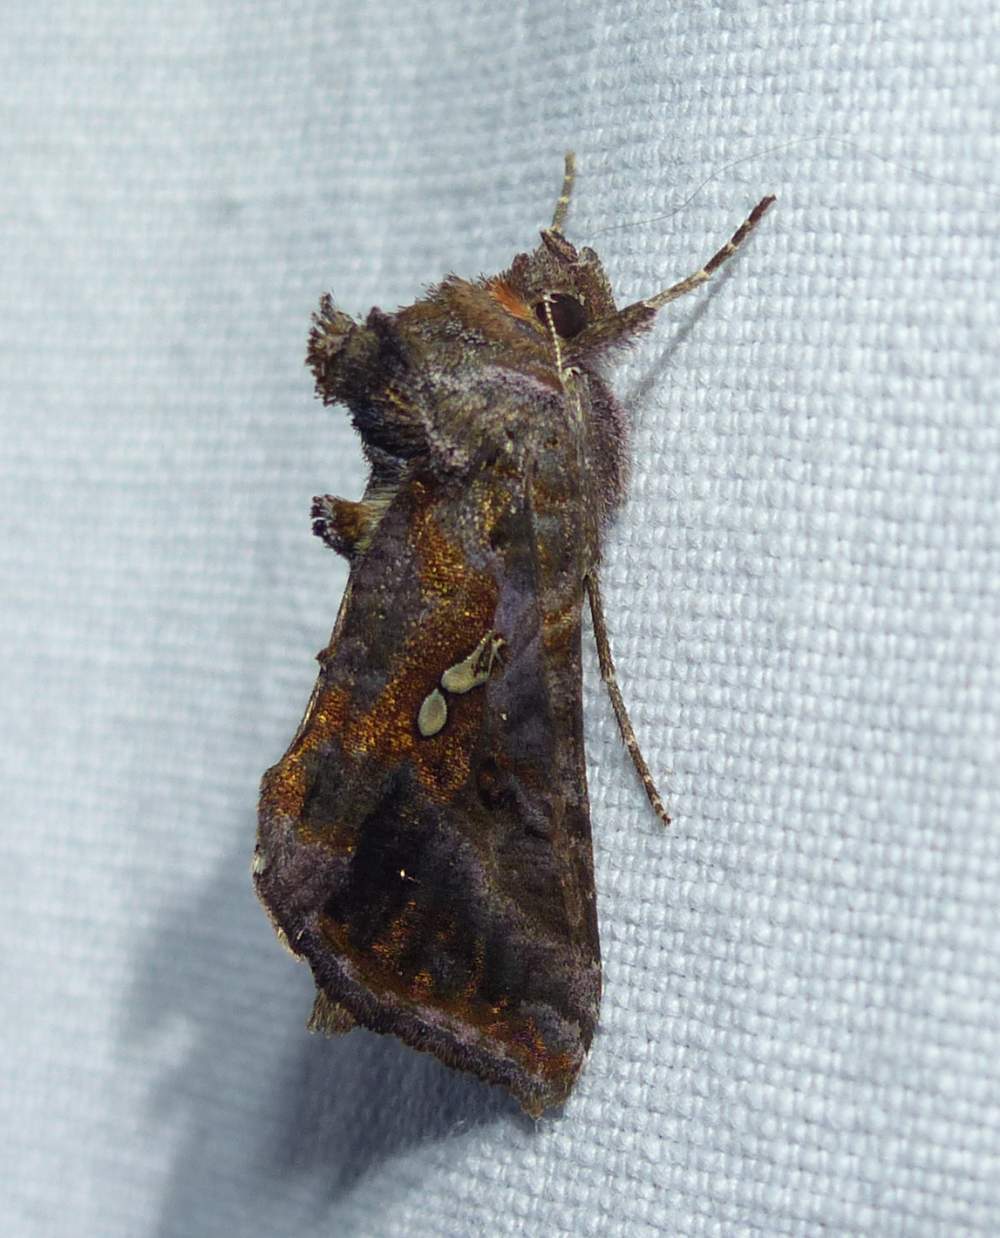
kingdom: Animalia
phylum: Arthropoda
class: Insecta
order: Lepidoptera
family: Noctuidae
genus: Autographa
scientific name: Autographa precationis
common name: Common looper moth
